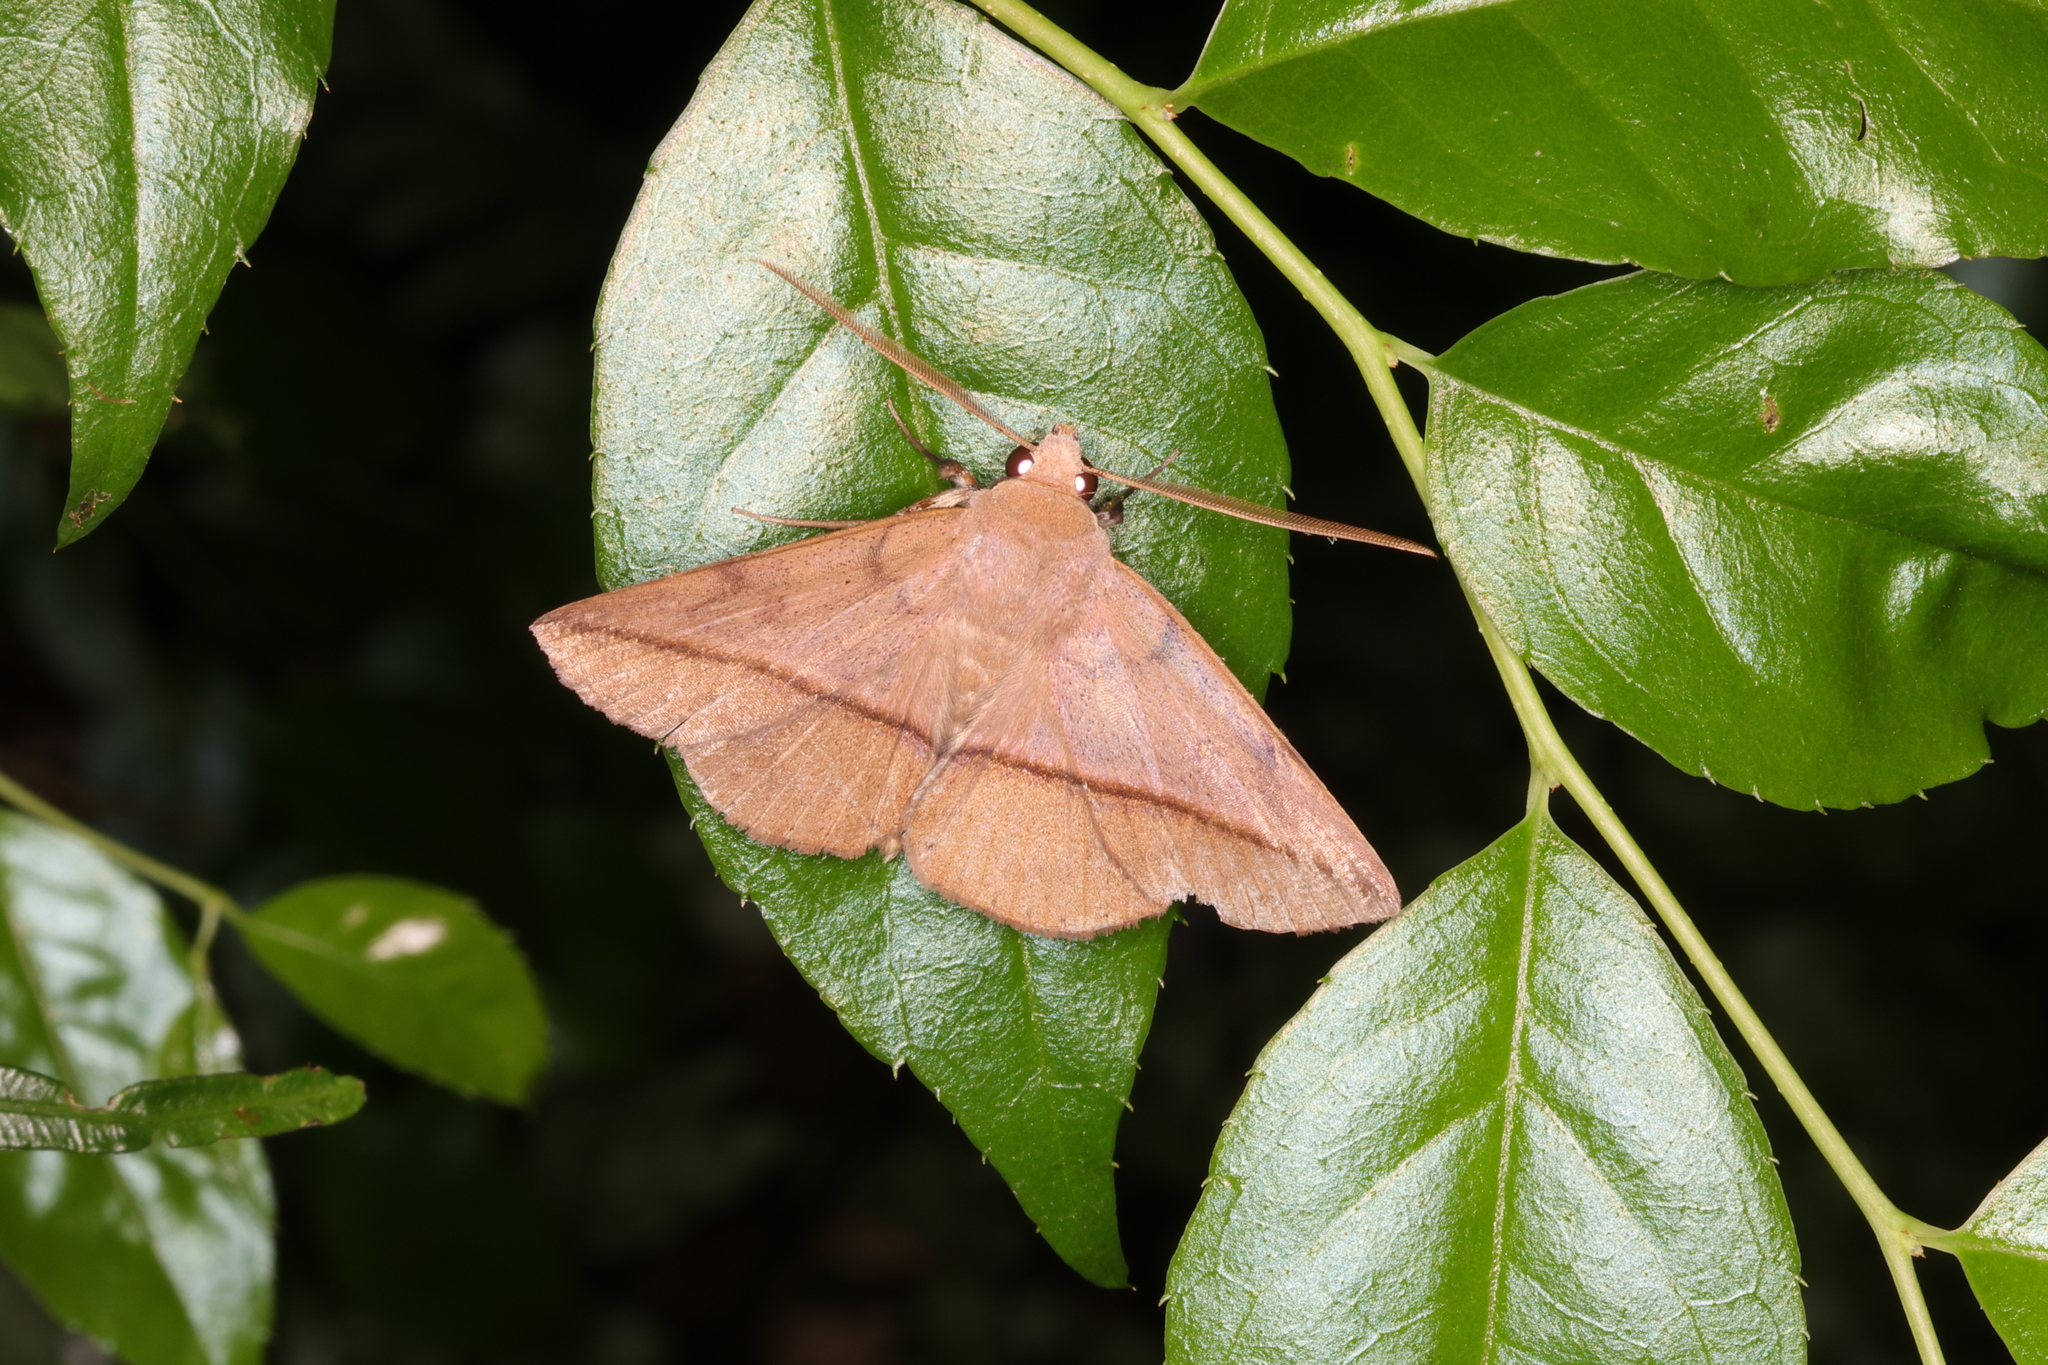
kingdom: Animalia
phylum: Arthropoda
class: Insecta
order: Lepidoptera
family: Erebidae
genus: Ugia
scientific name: Ugia purpurea
